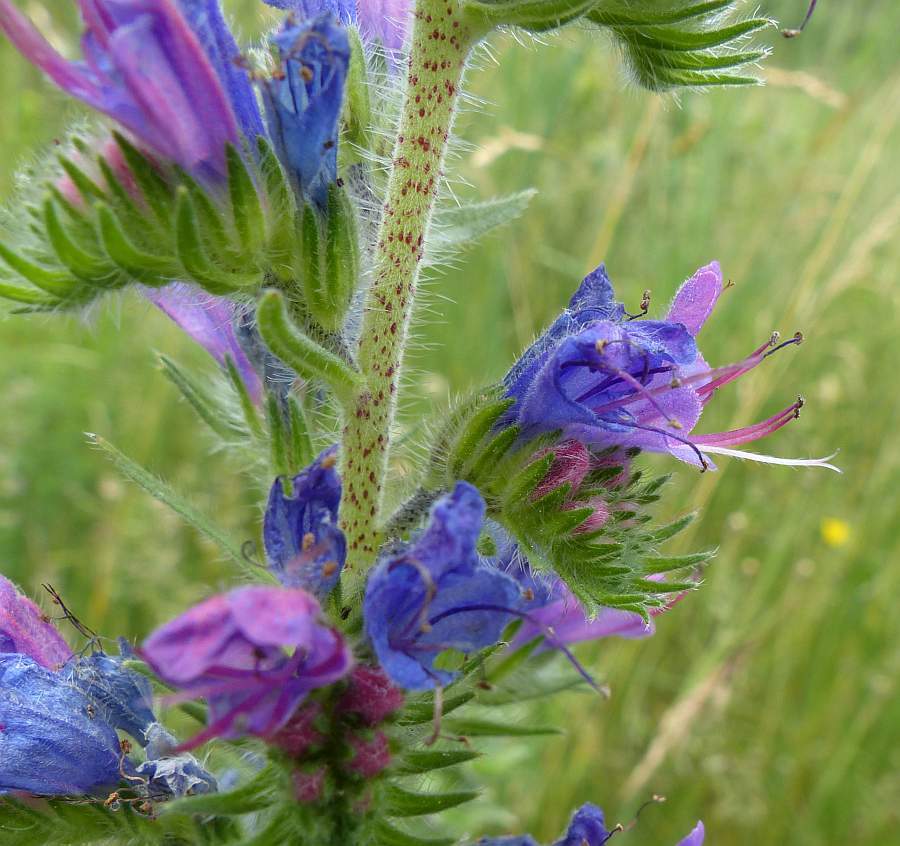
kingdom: Plantae
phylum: Tracheophyta
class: Magnoliopsida
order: Boraginales
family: Boraginaceae
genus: Echium
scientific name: Echium vulgare
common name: Common viper's bugloss
